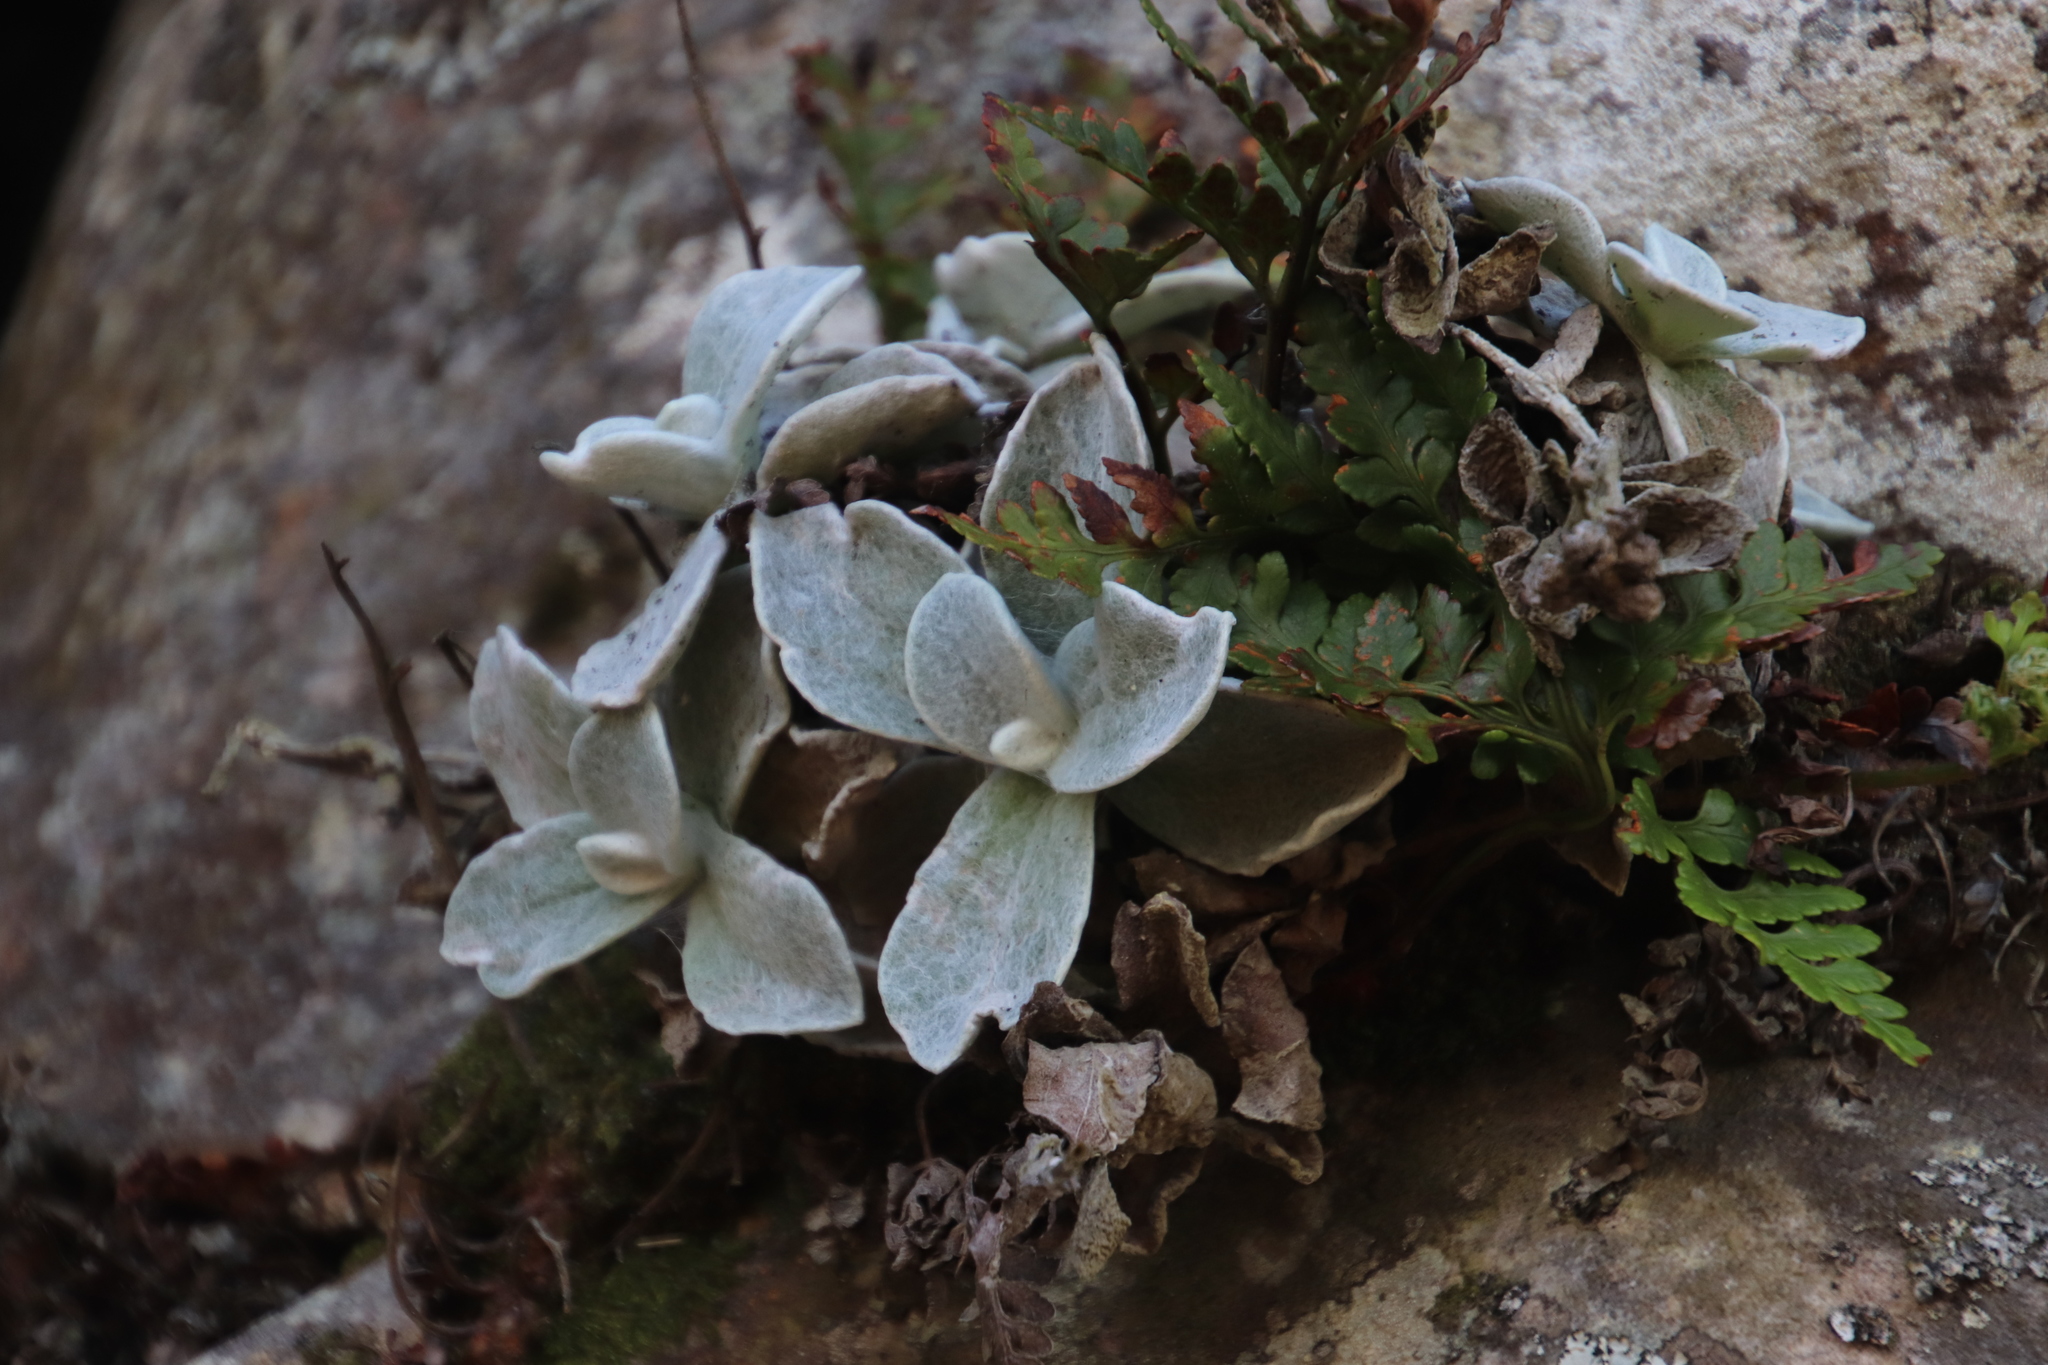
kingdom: Plantae
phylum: Tracheophyta
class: Magnoliopsida
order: Asterales
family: Asteraceae
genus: Helichrysum
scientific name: Helichrysum grandiflorum
